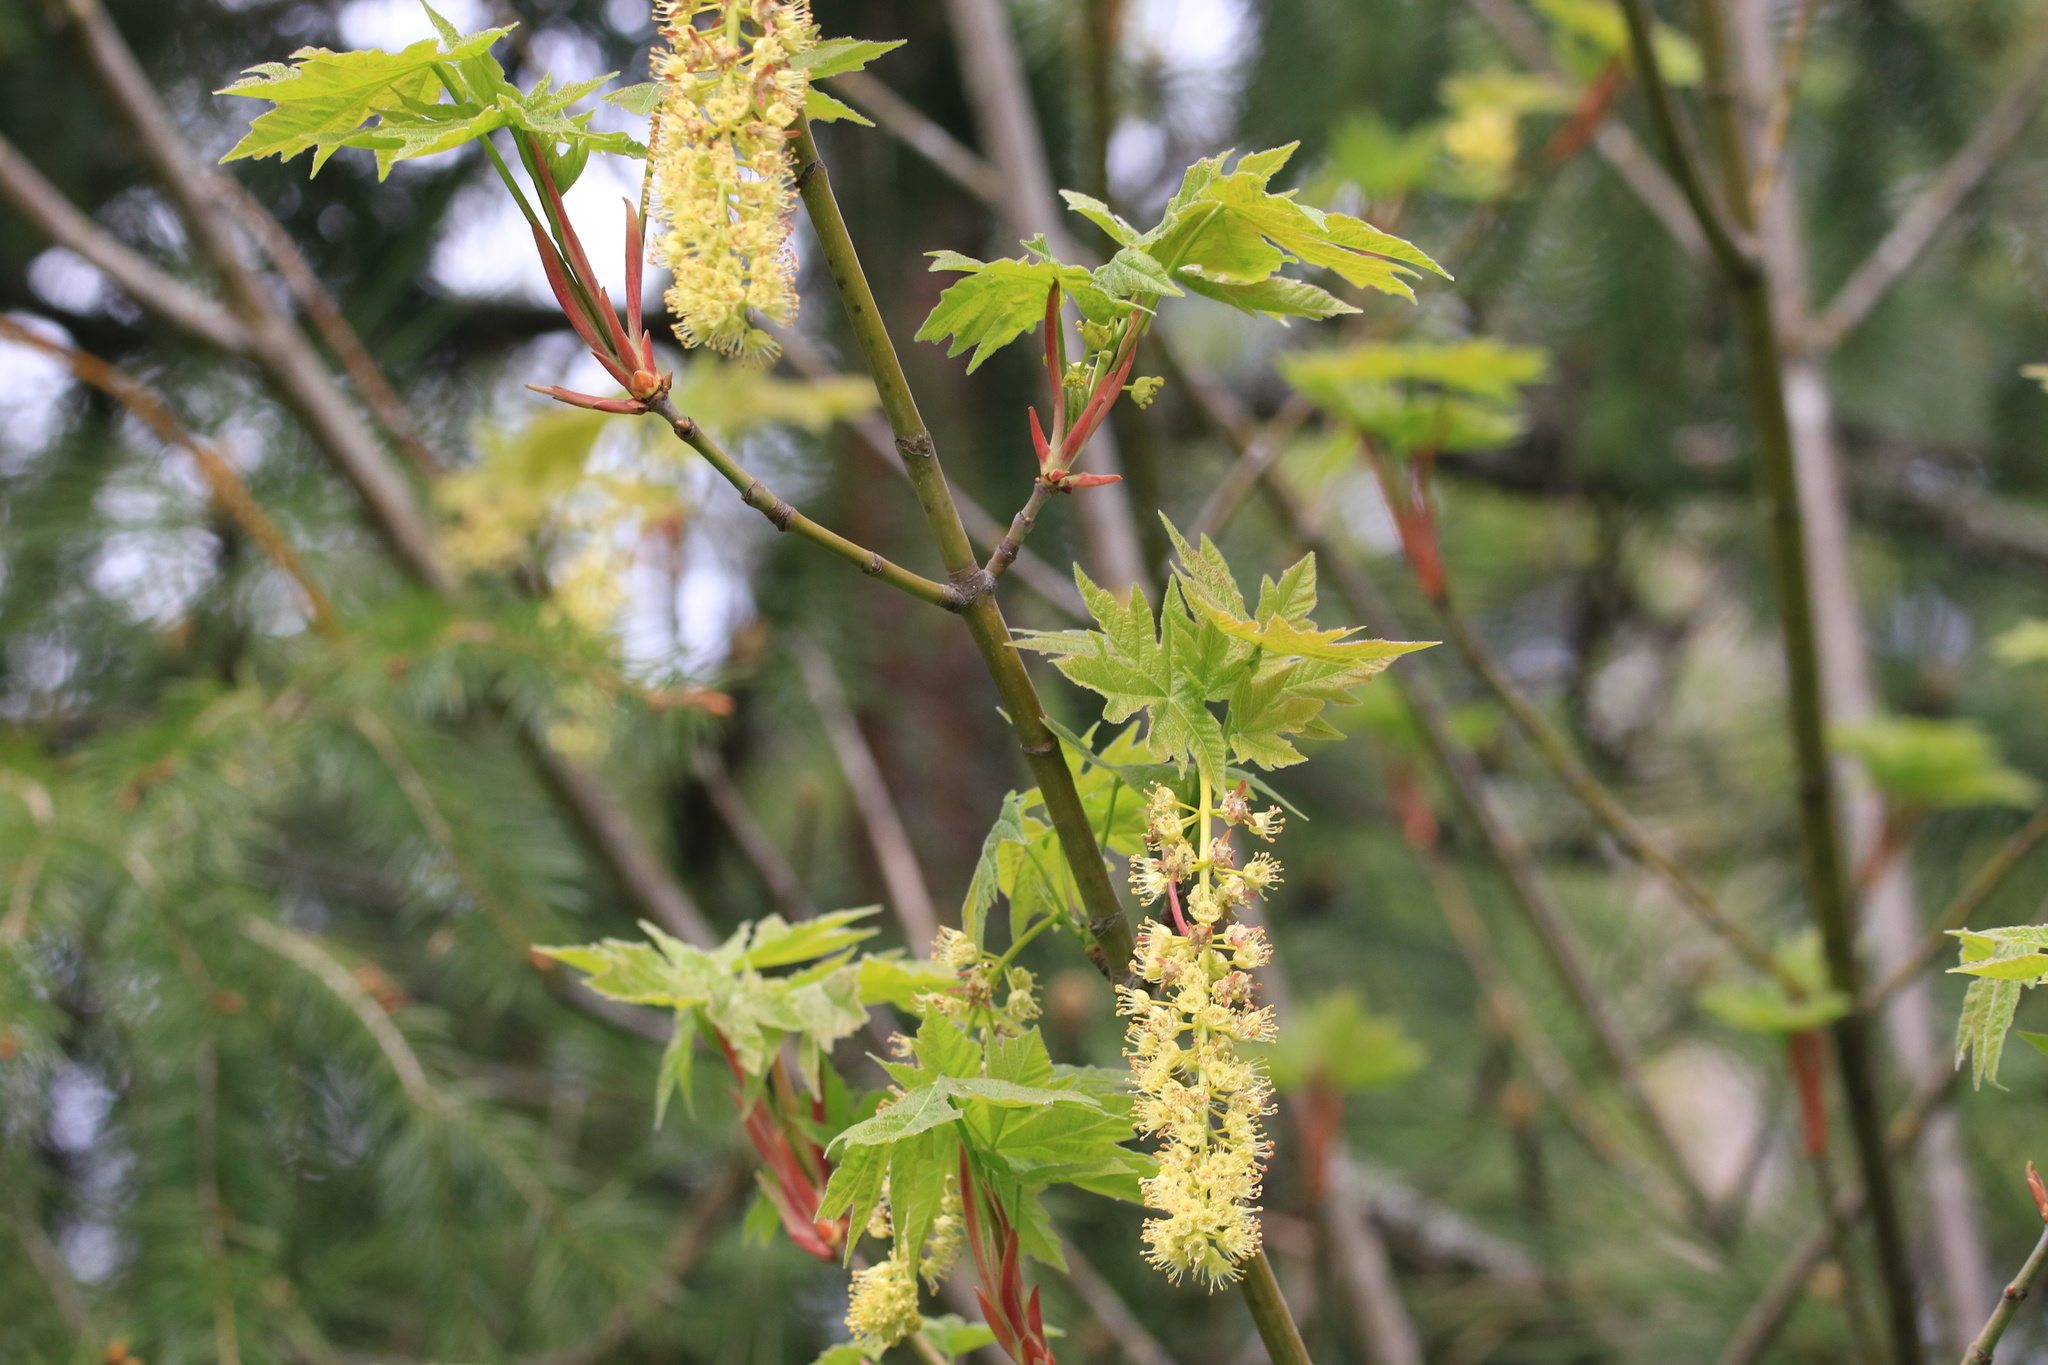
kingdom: Plantae
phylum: Tracheophyta
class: Magnoliopsida
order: Sapindales
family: Sapindaceae
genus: Acer
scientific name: Acer macrophyllum
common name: Oregon maple
